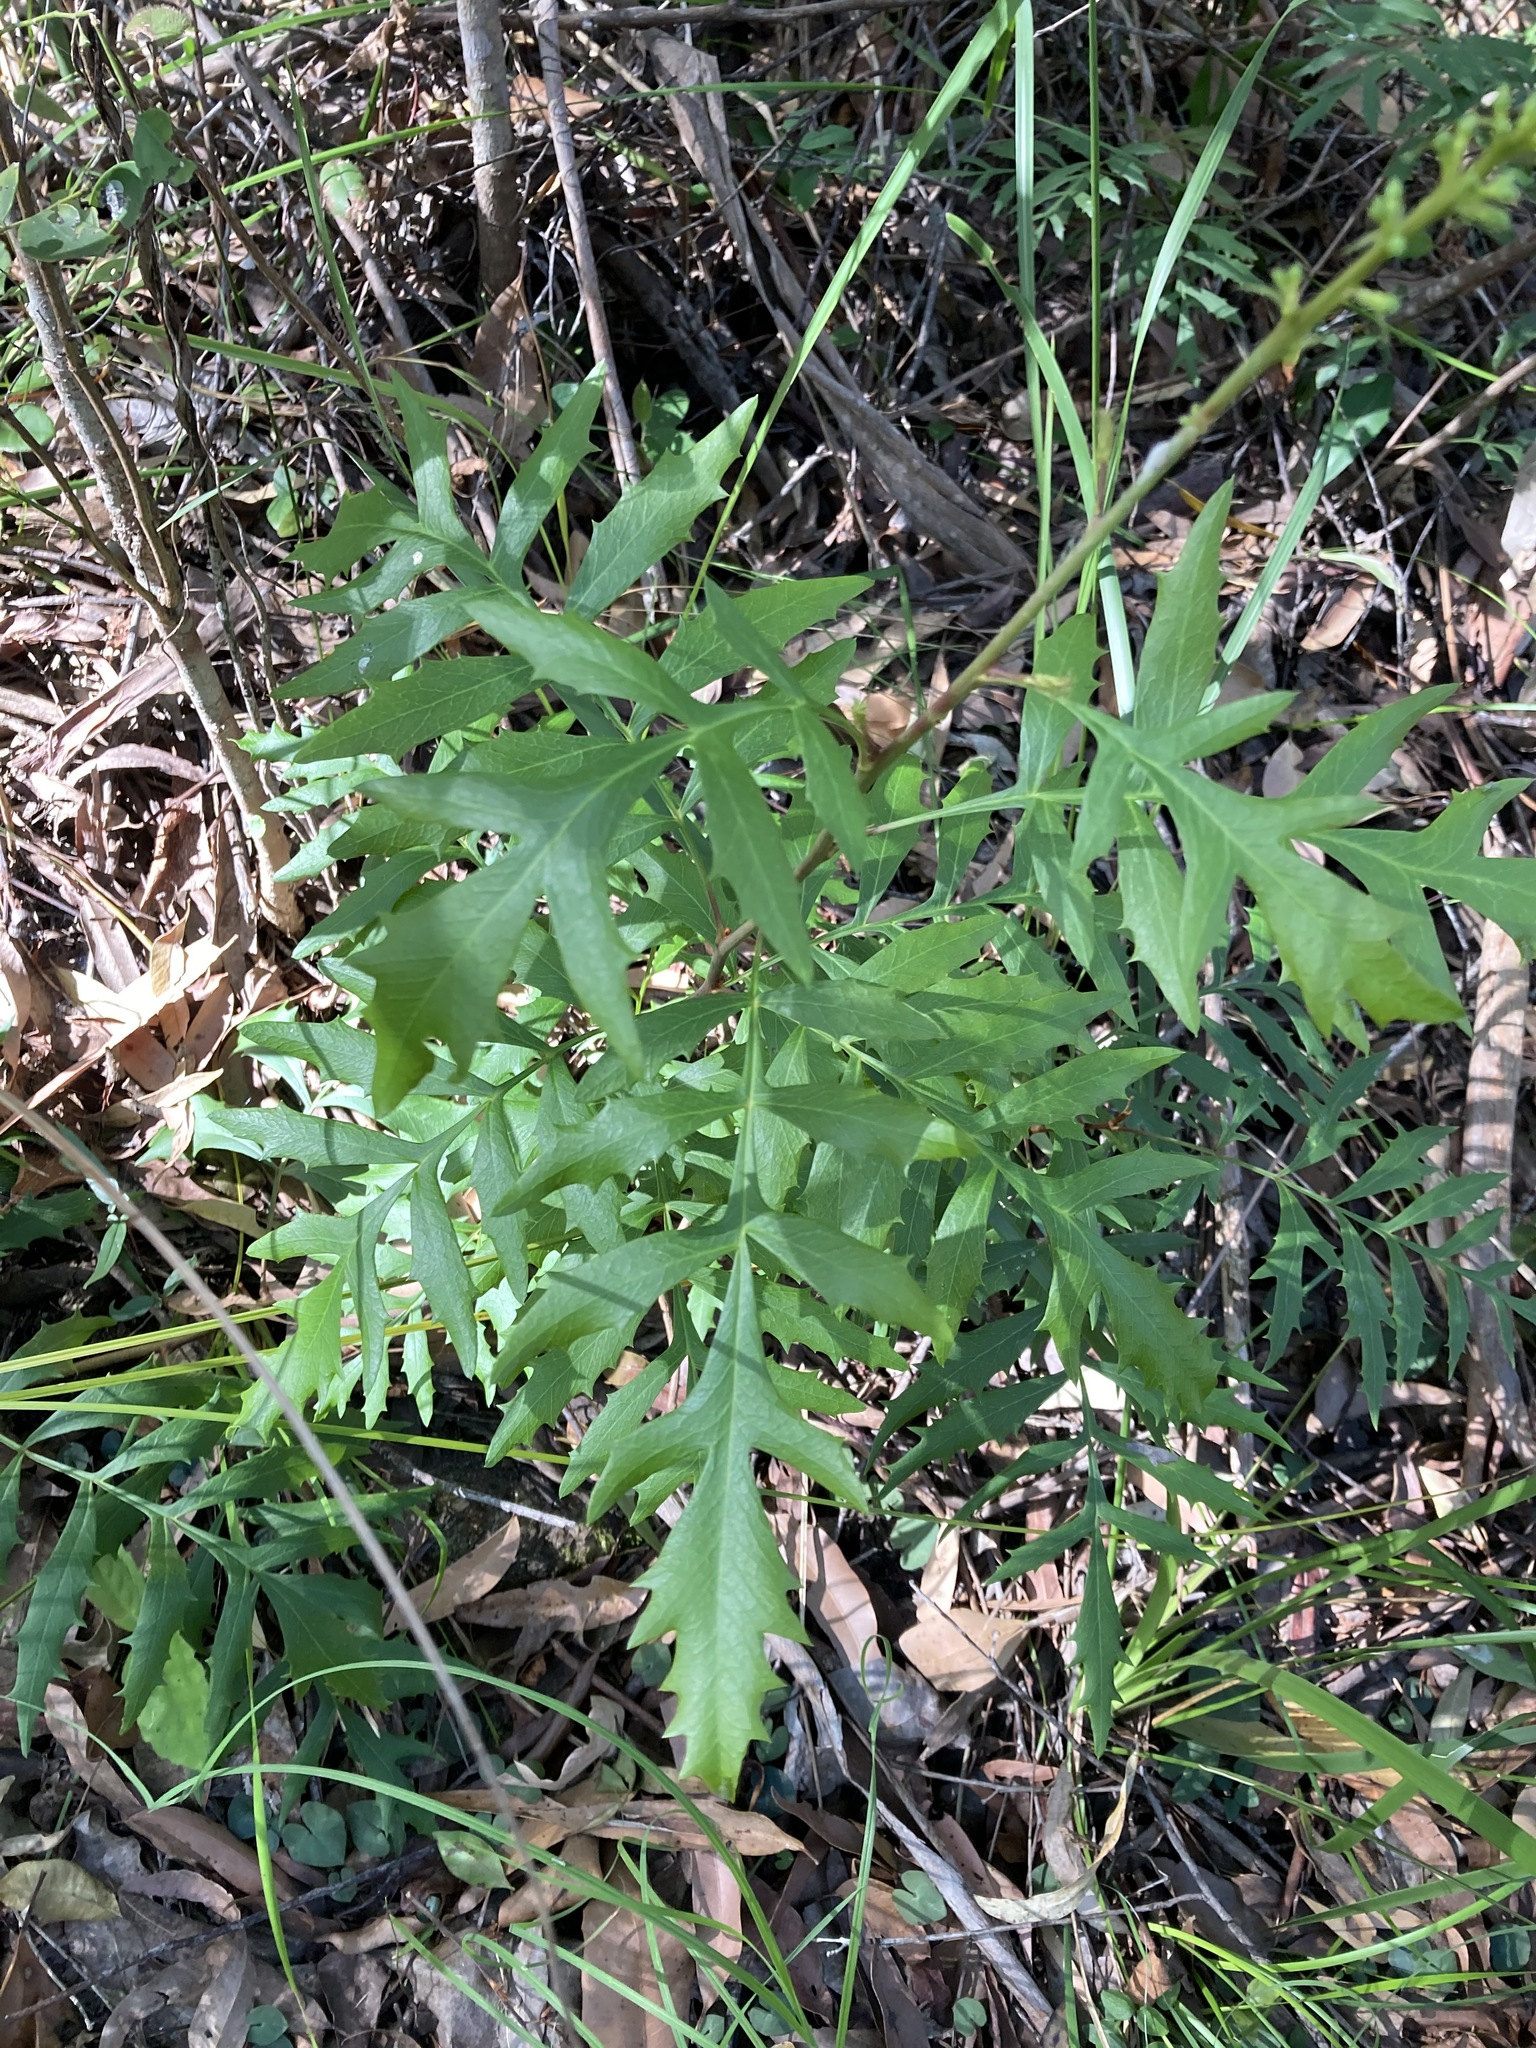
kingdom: Plantae
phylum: Tracheophyta
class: Magnoliopsida
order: Proteales
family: Proteaceae
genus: Lomatia
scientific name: Lomatia silaifolia
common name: Crinklebush
